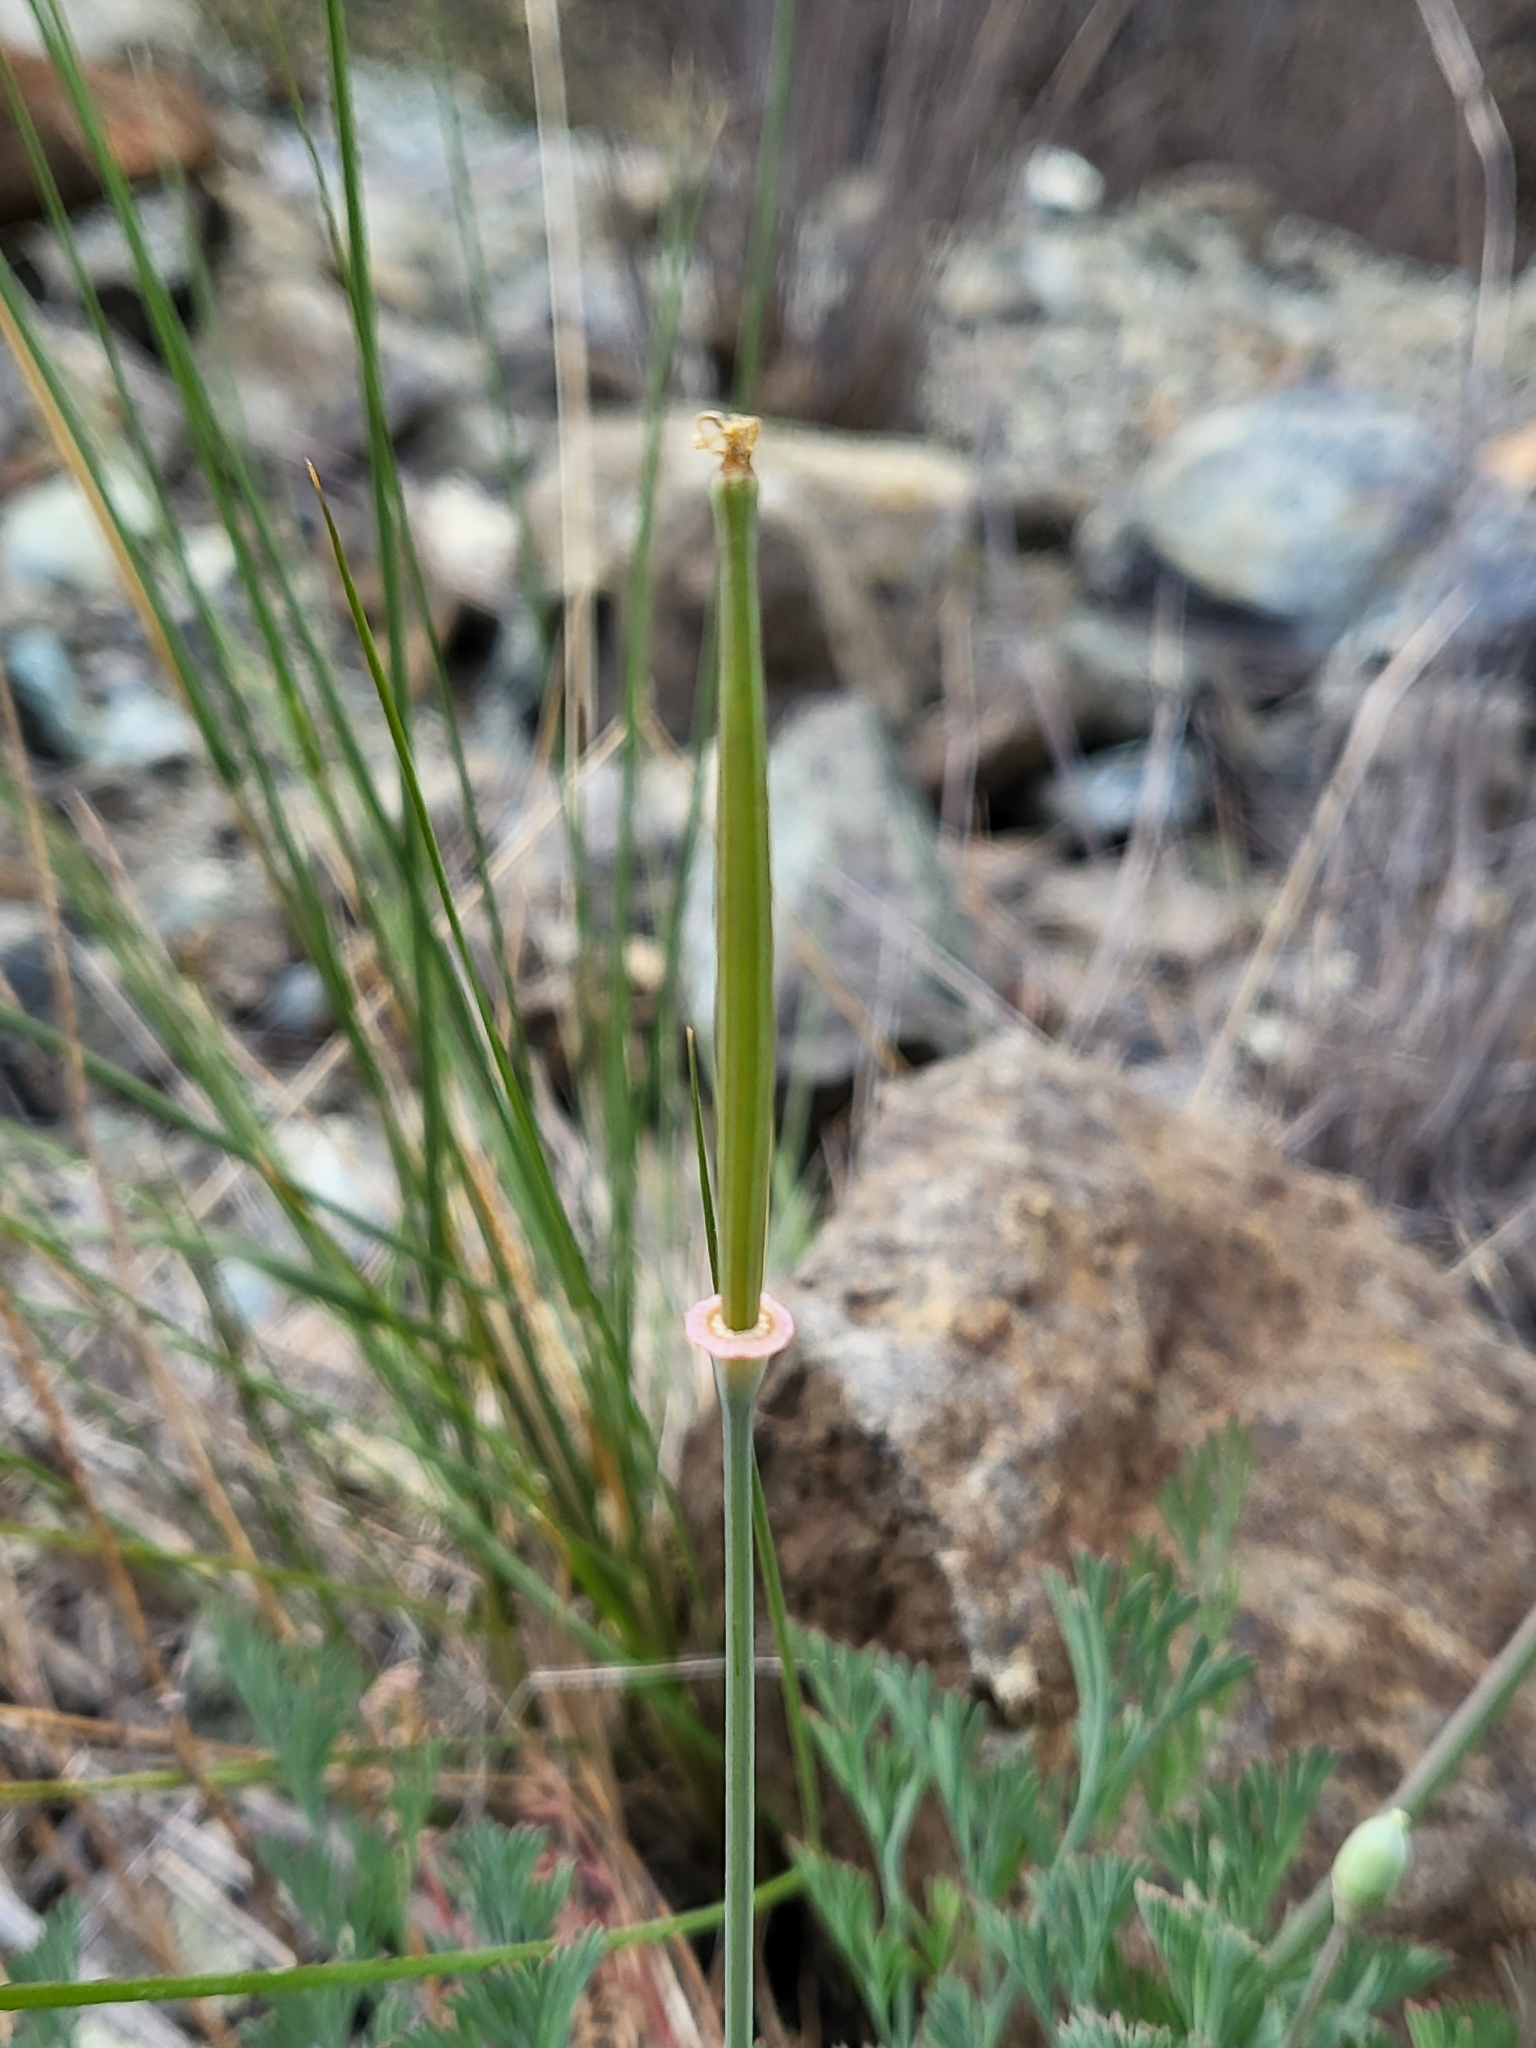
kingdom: Plantae
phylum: Tracheophyta
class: Magnoliopsida
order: Ranunculales
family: Papaveraceae
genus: Eschscholzia
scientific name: Eschscholzia californica
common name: California poppy
